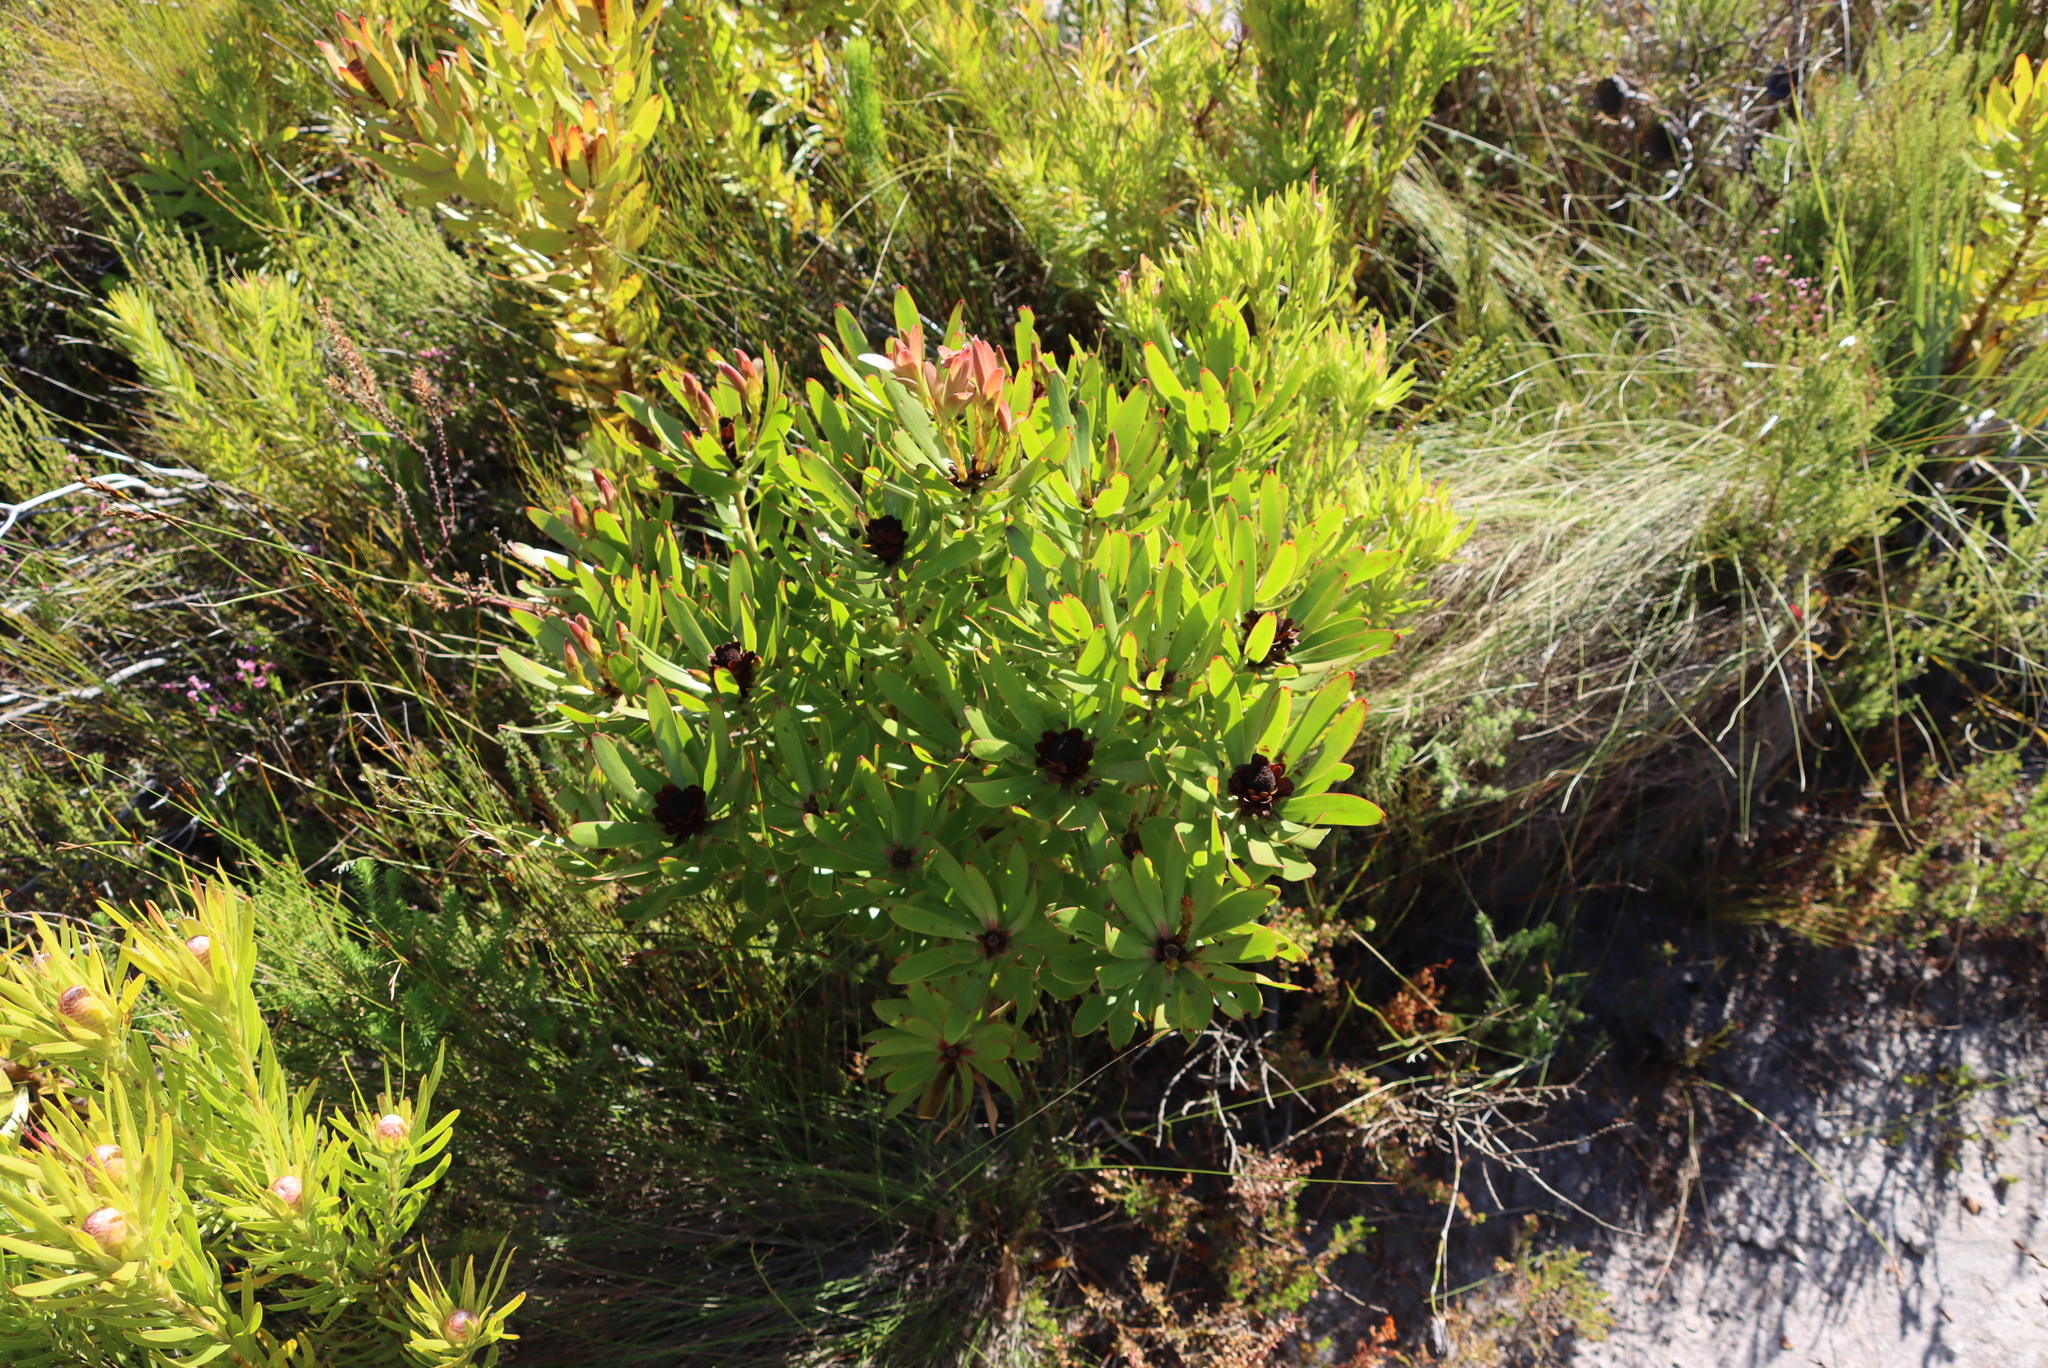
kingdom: Plantae
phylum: Tracheophyta
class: Magnoliopsida
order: Proteales
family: Proteaceae
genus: Leucadendron
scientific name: Leucadendron microcephalum
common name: Oilbract conebush
